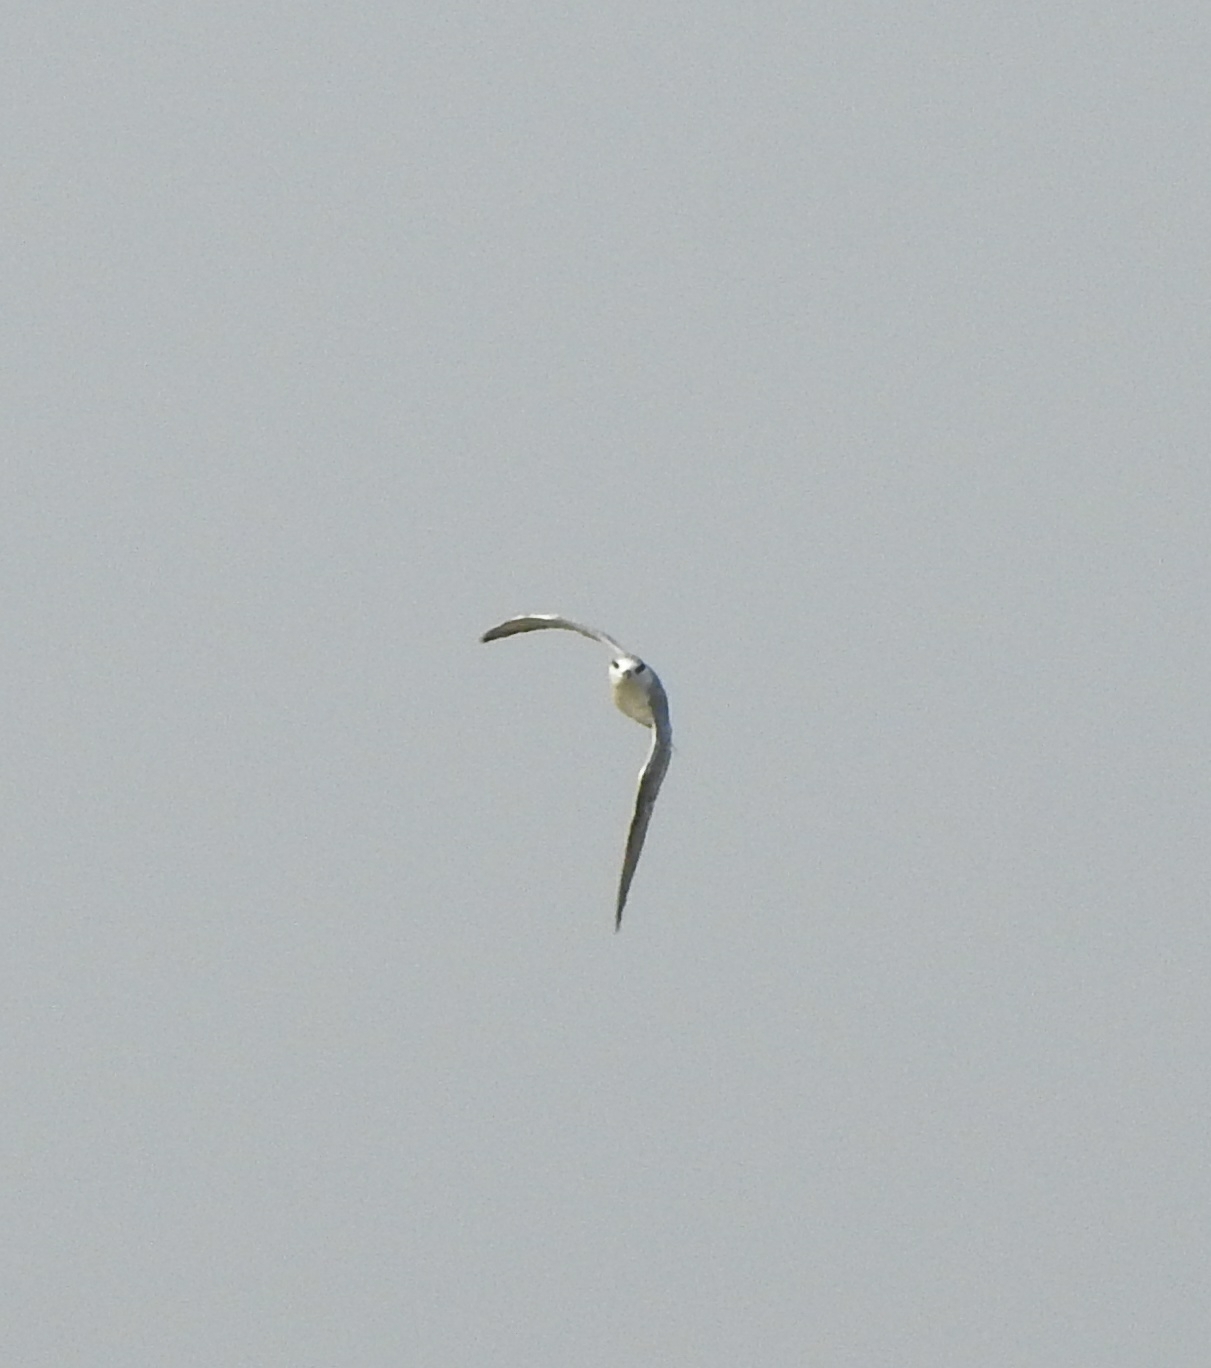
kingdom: Animalia
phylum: Chordata
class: Aves
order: Charadriiformes
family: Laridae
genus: Chlidonias
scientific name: Chlidonias hybrida
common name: Whiskered tern
